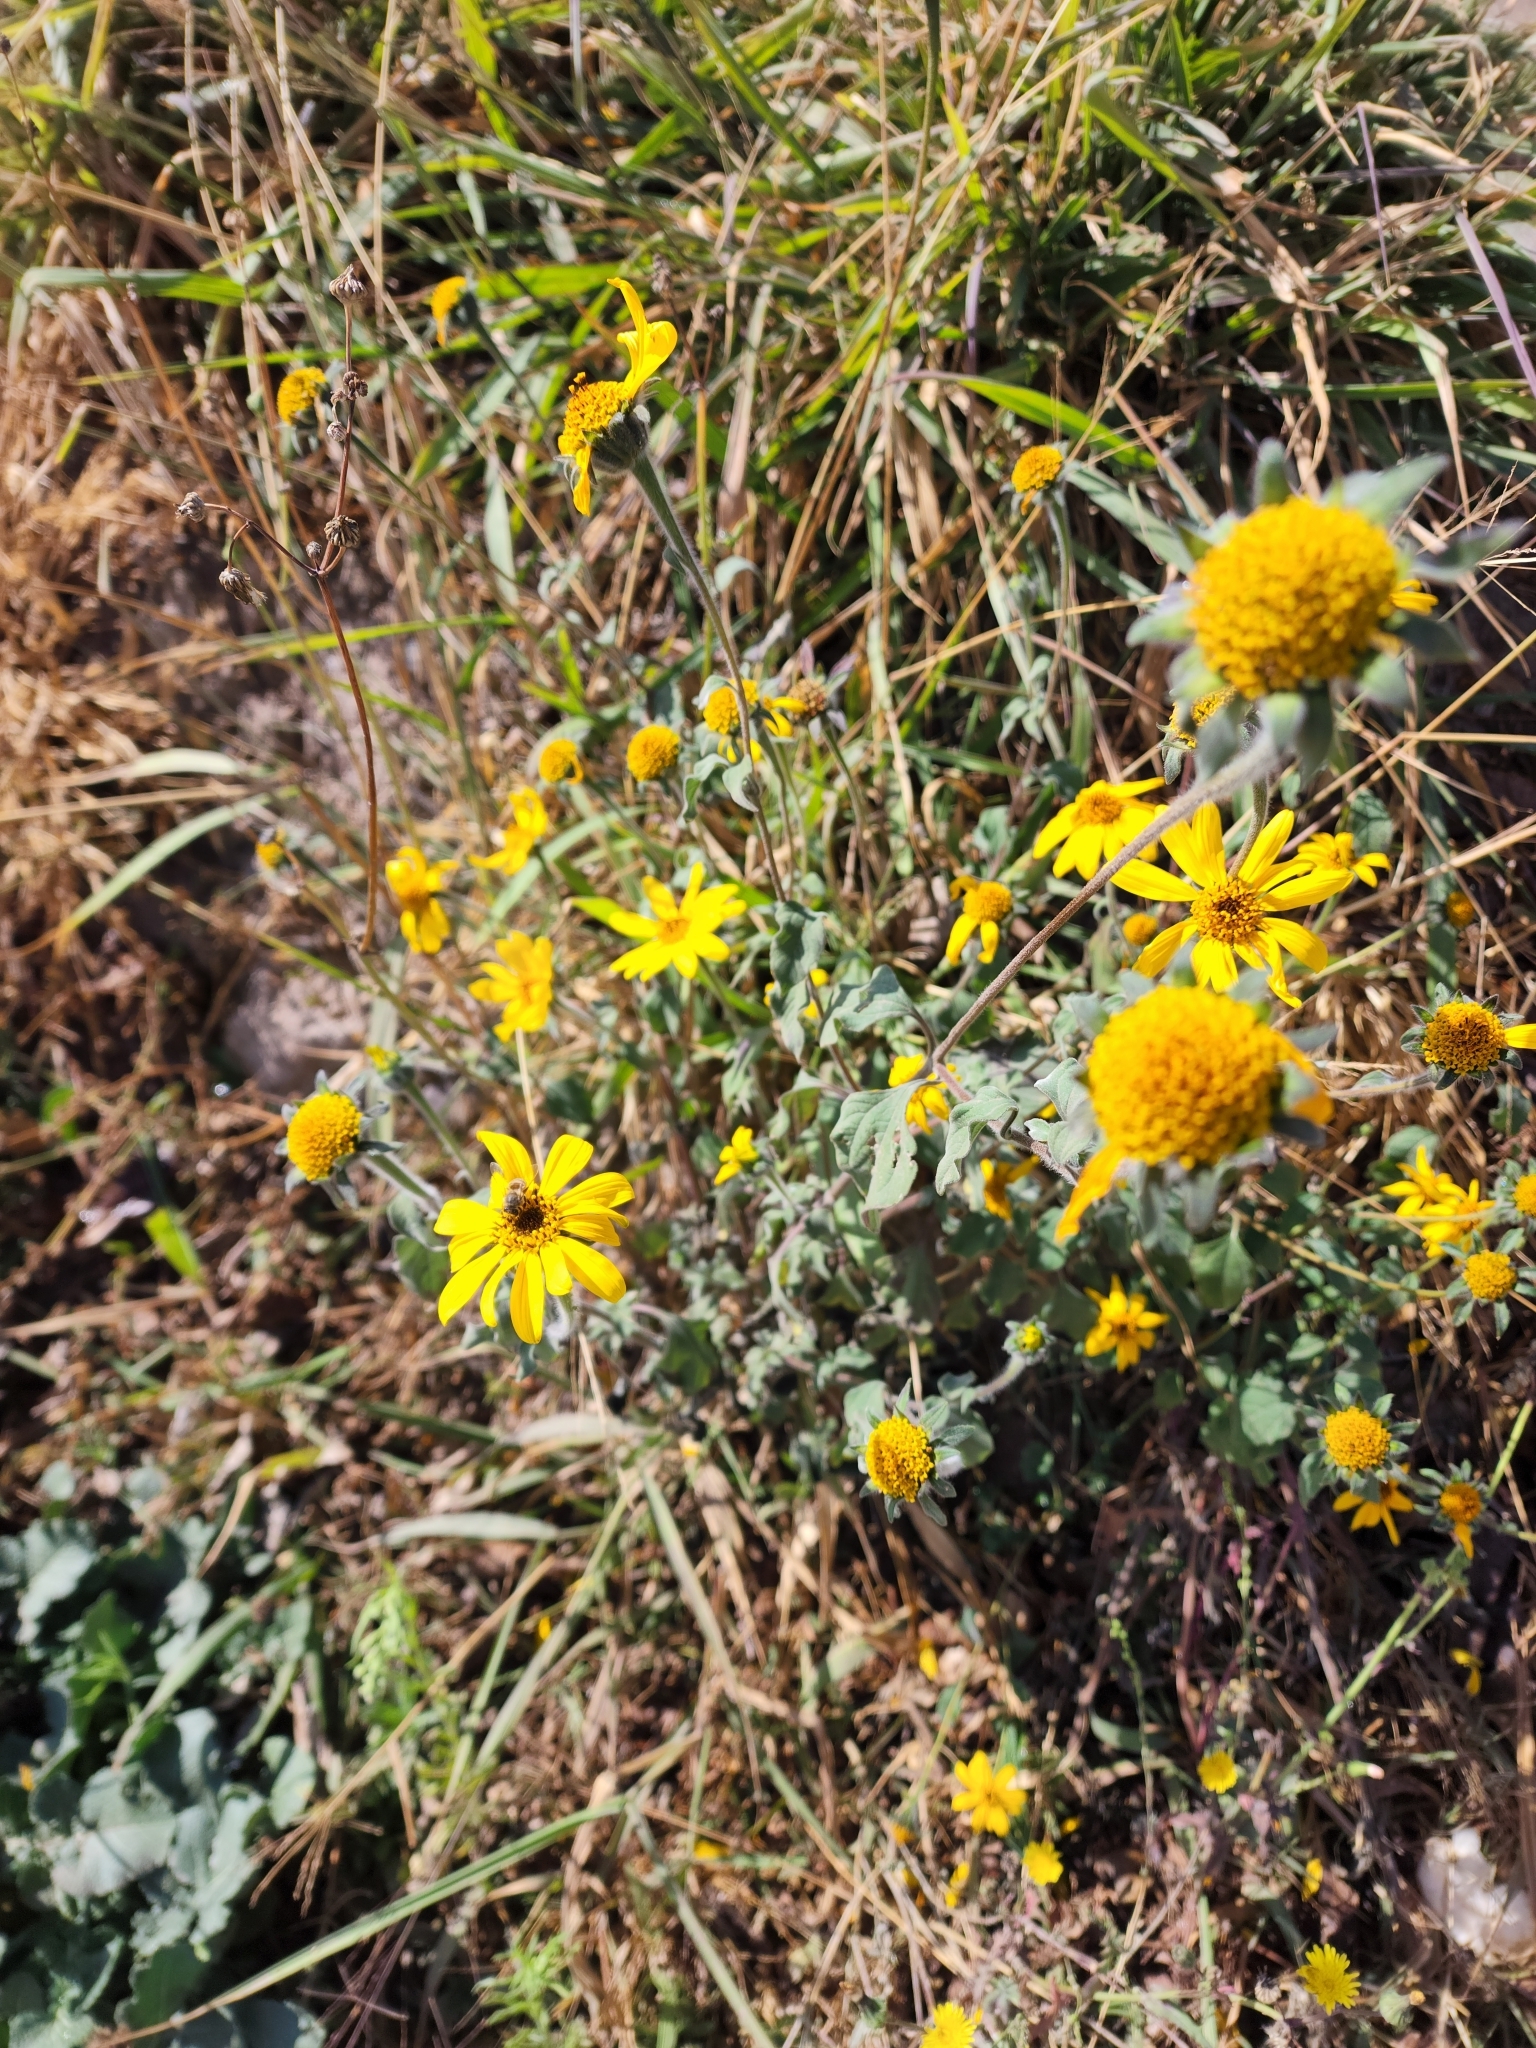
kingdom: Plantae
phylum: Tracheophyta
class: Magnoliopsida
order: Asterales
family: Asteraceae
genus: Tithonia
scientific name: Tithonia tubaeformis
